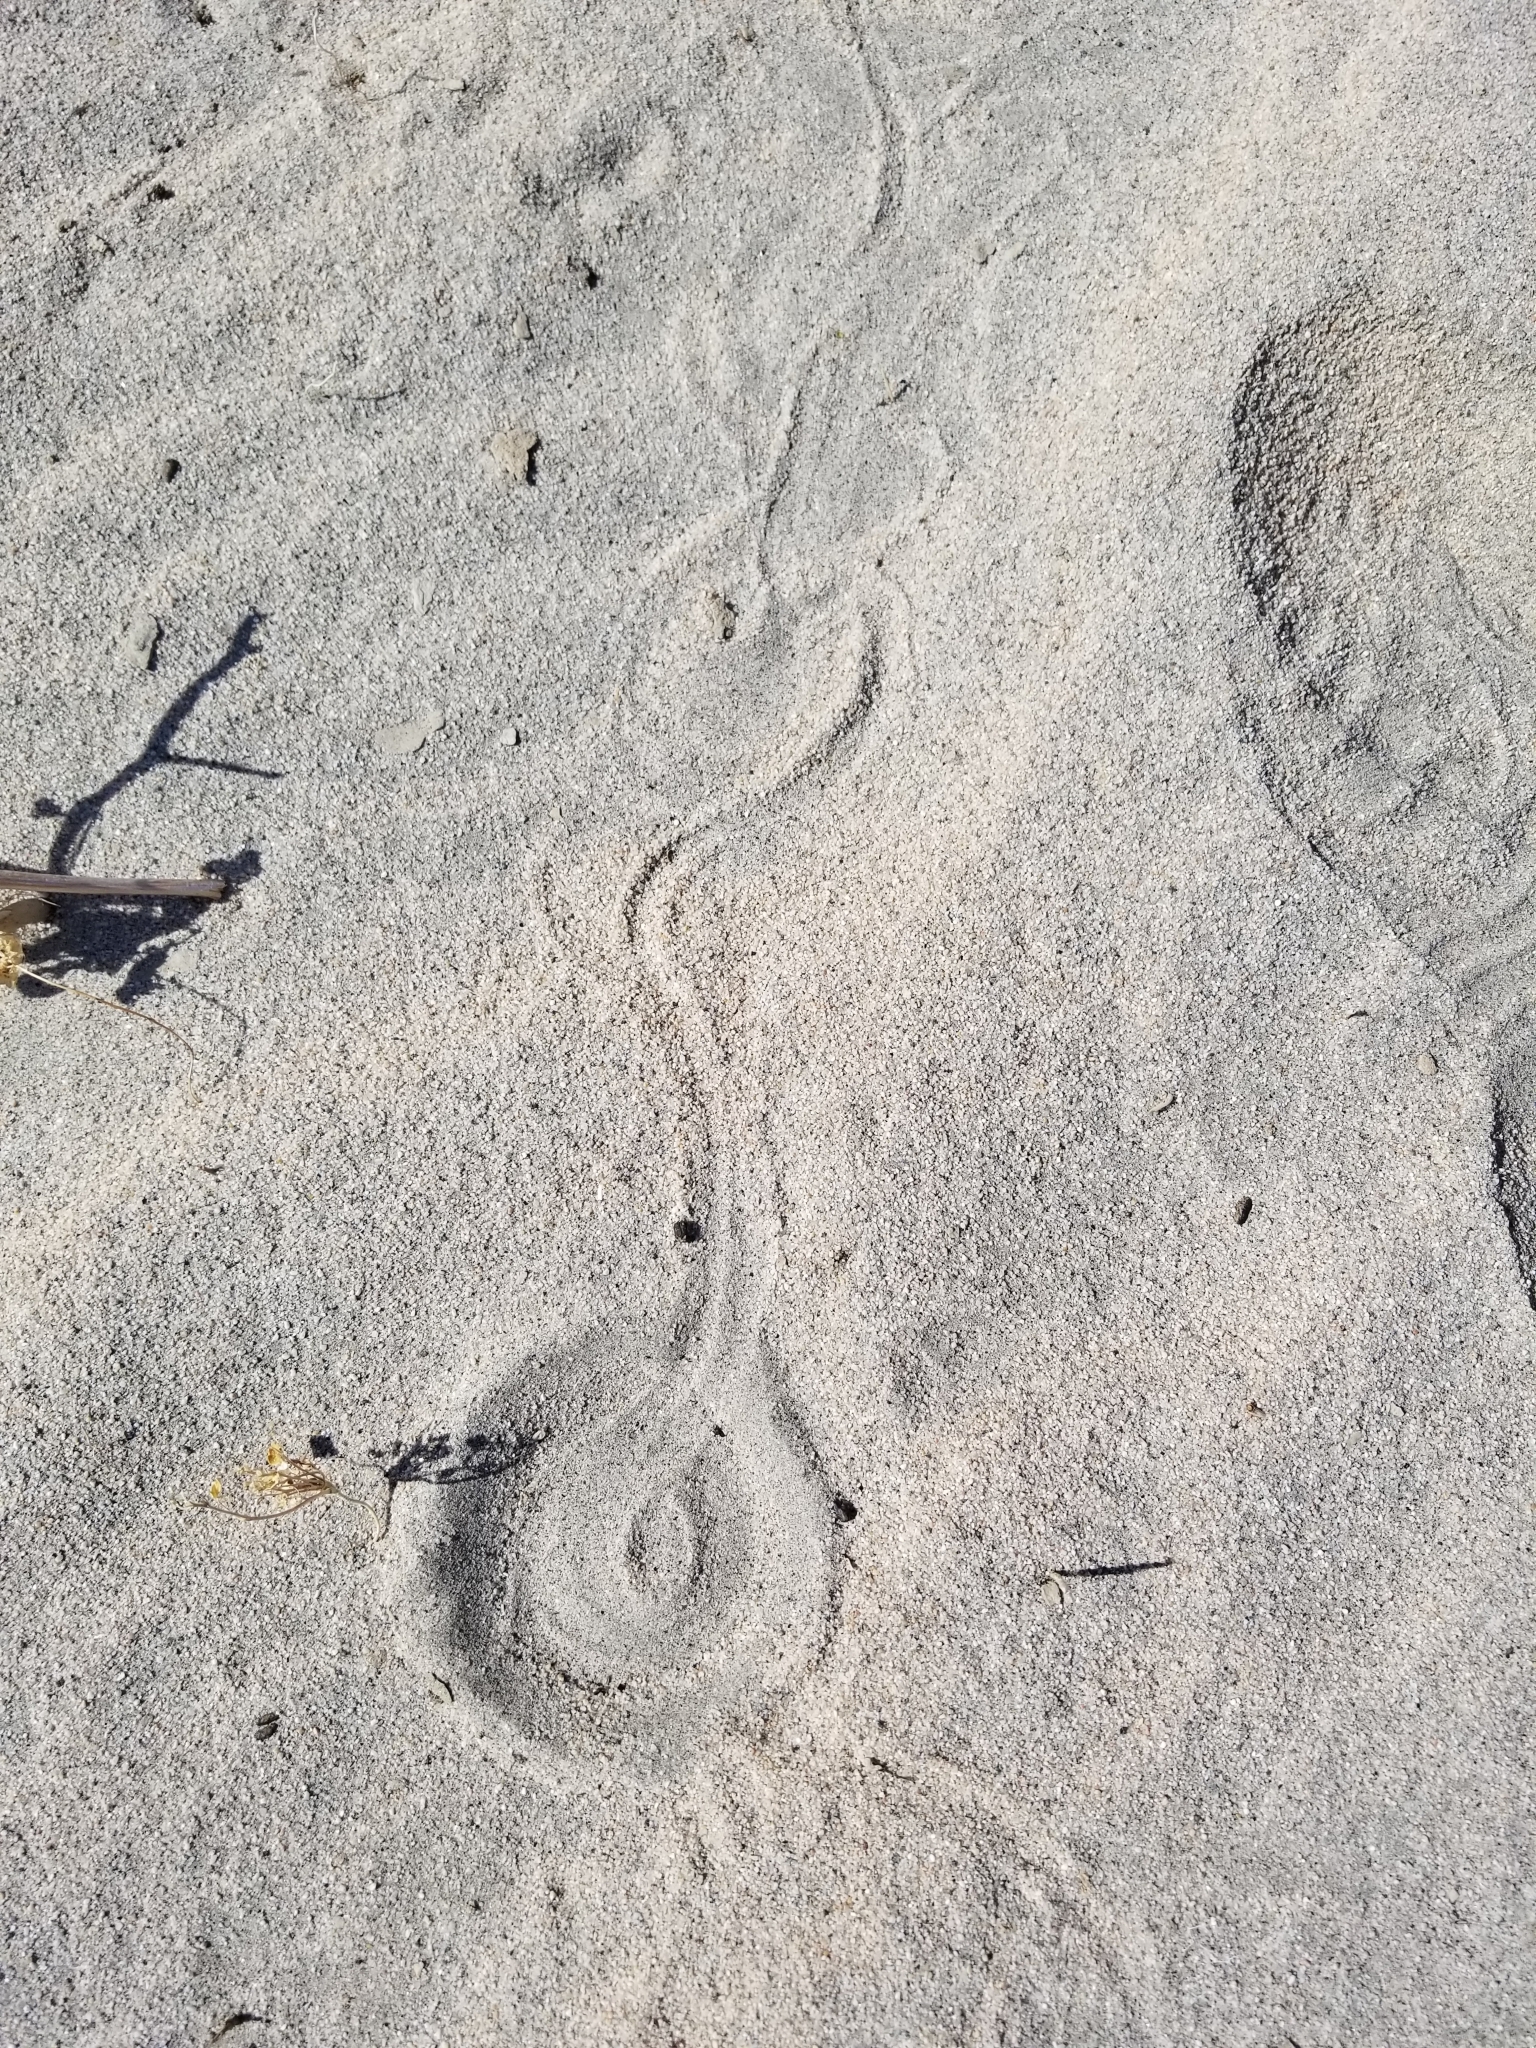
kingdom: Animalia
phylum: Chordata
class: Squamata
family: Viperidae
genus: Crotalus
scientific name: Crotalus cerastes
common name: Sidewinder
